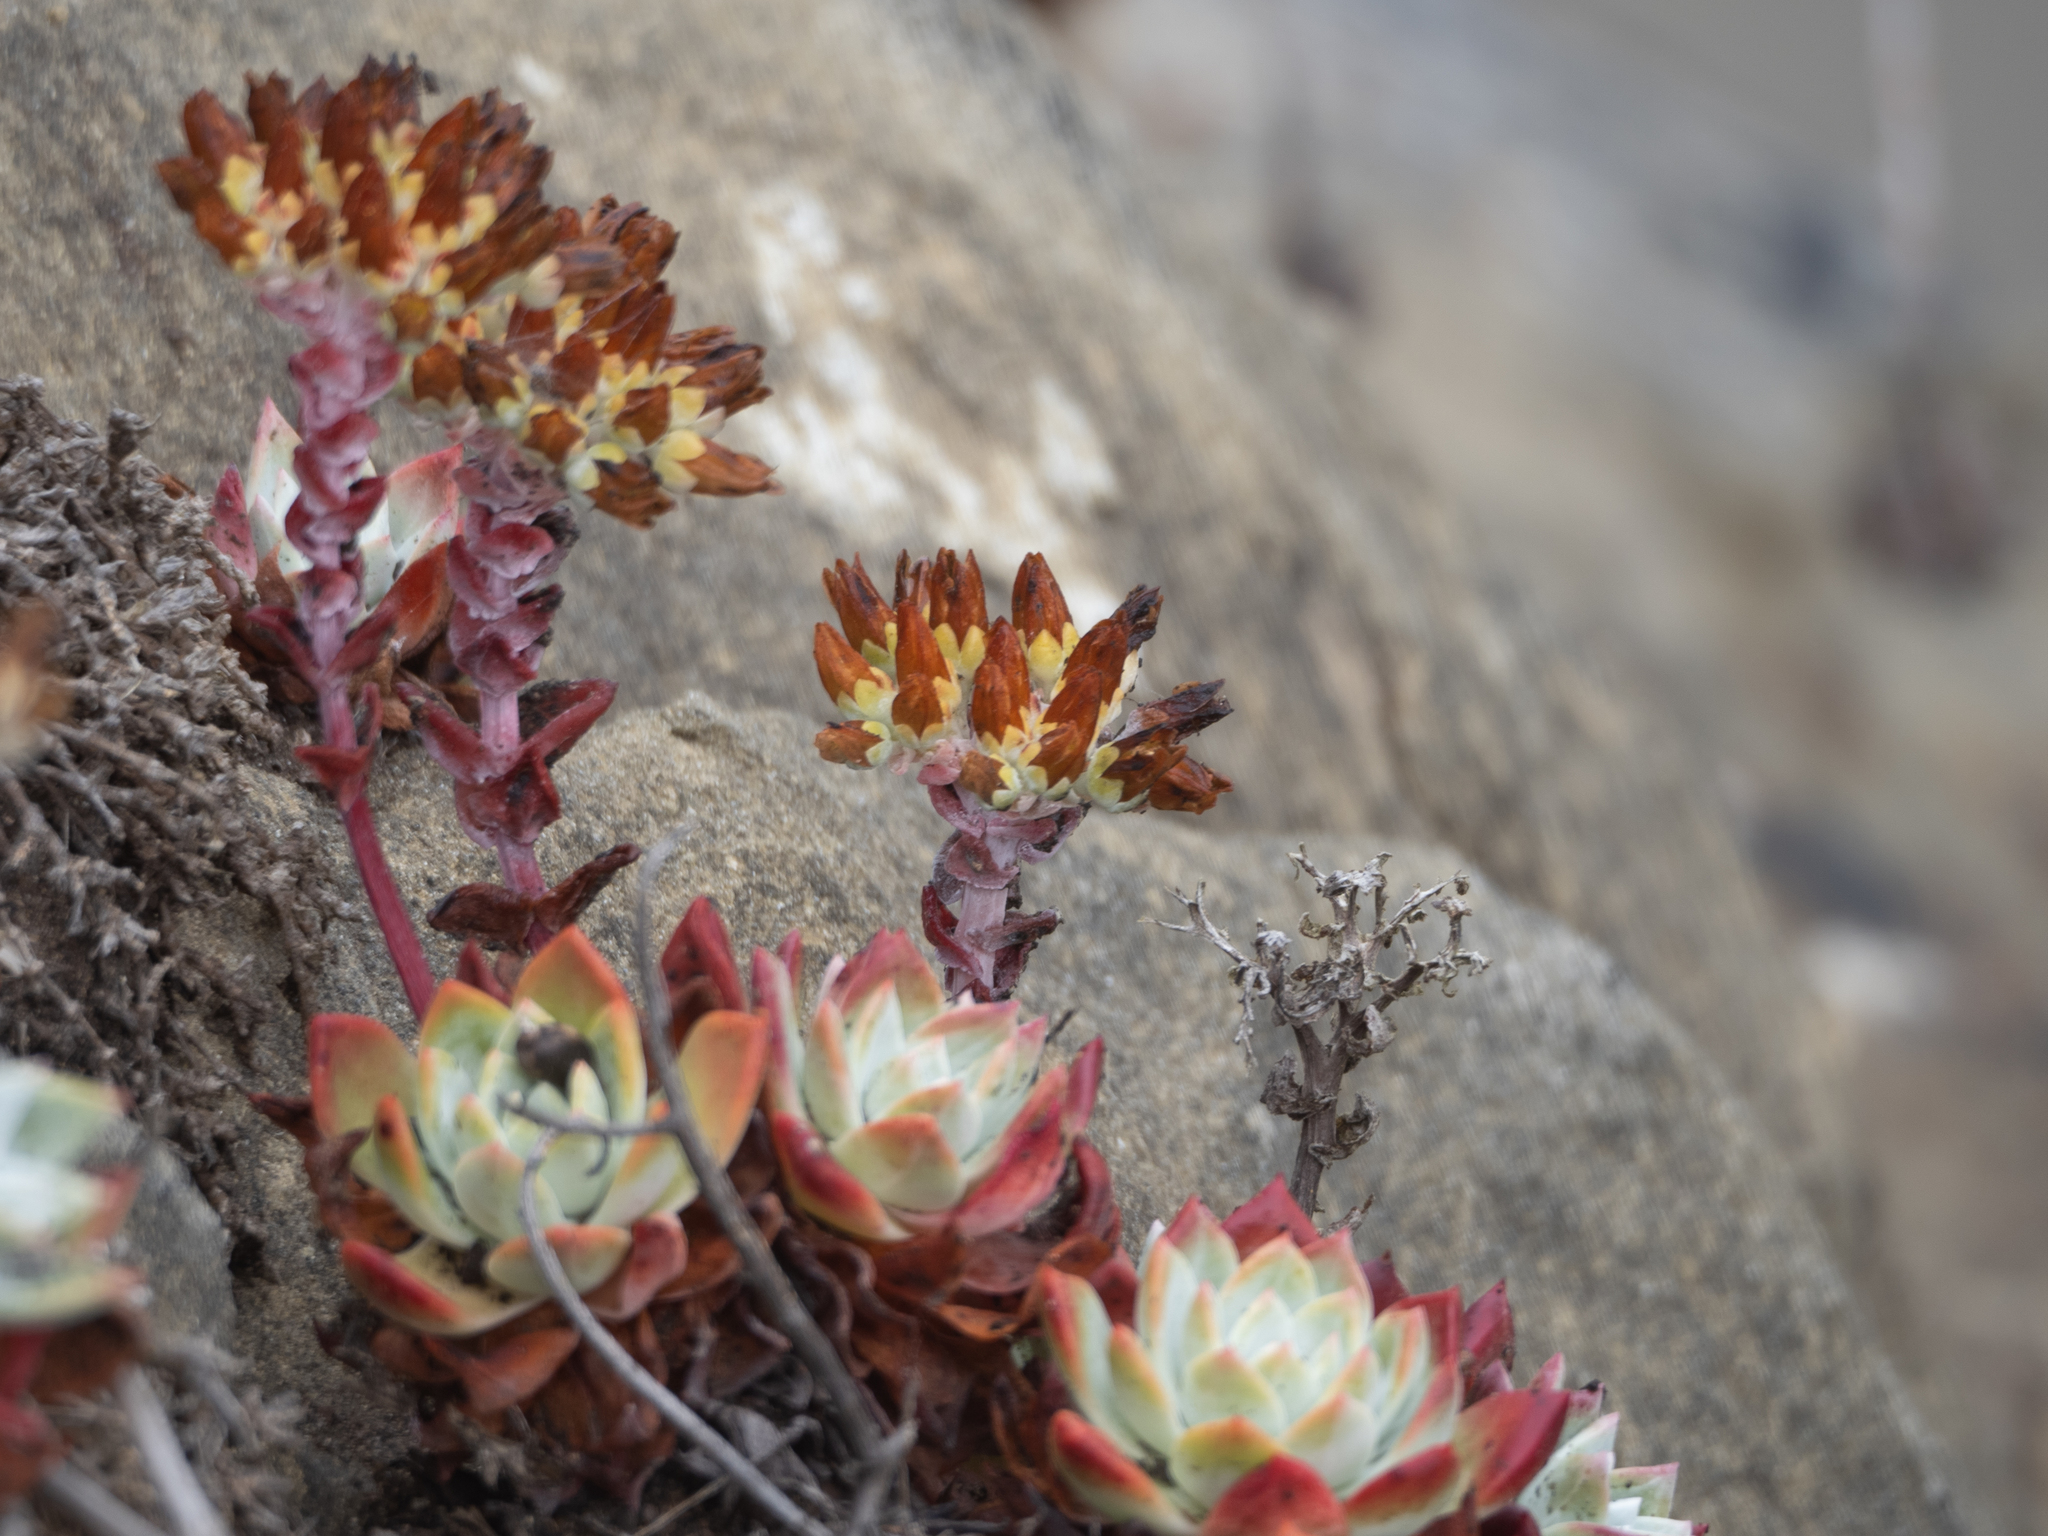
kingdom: Plantae
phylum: Tracheophyta
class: Magnoliopsida
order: Saxifragales
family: Crassulaceae
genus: Dudleya
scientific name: Dudleya farinosa
